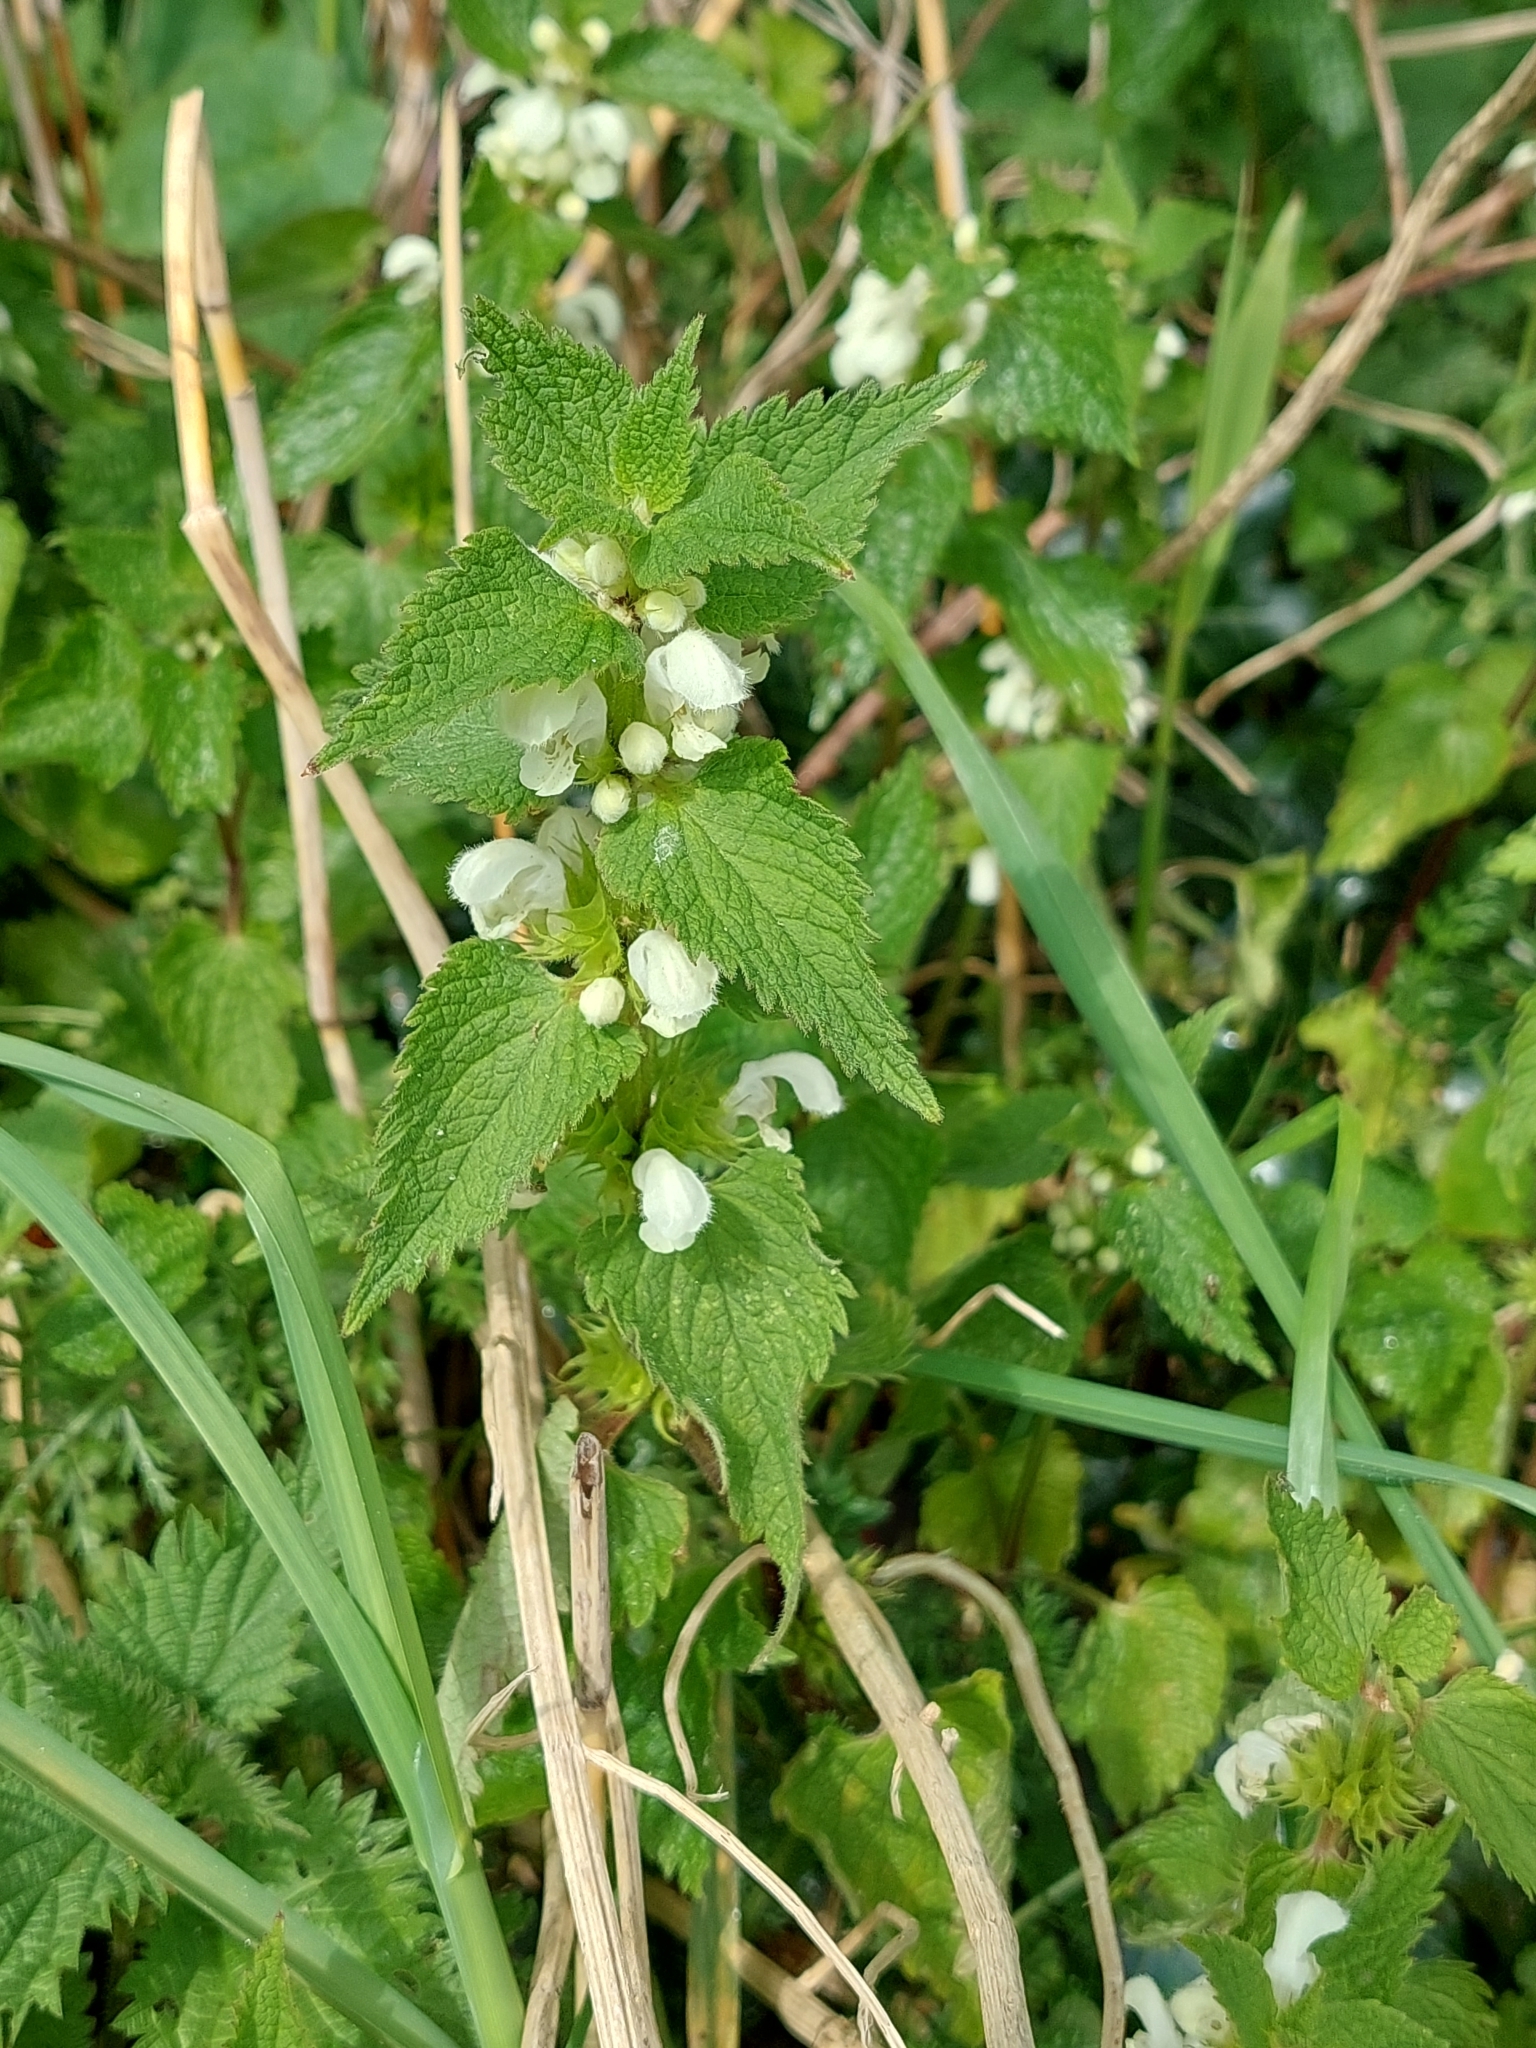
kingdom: Plantae
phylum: Tracheophyta
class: Magnoliopsida
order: Lamiales
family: Lamiaceae
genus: Lamium
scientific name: Lamium album
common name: White dead-nettle
